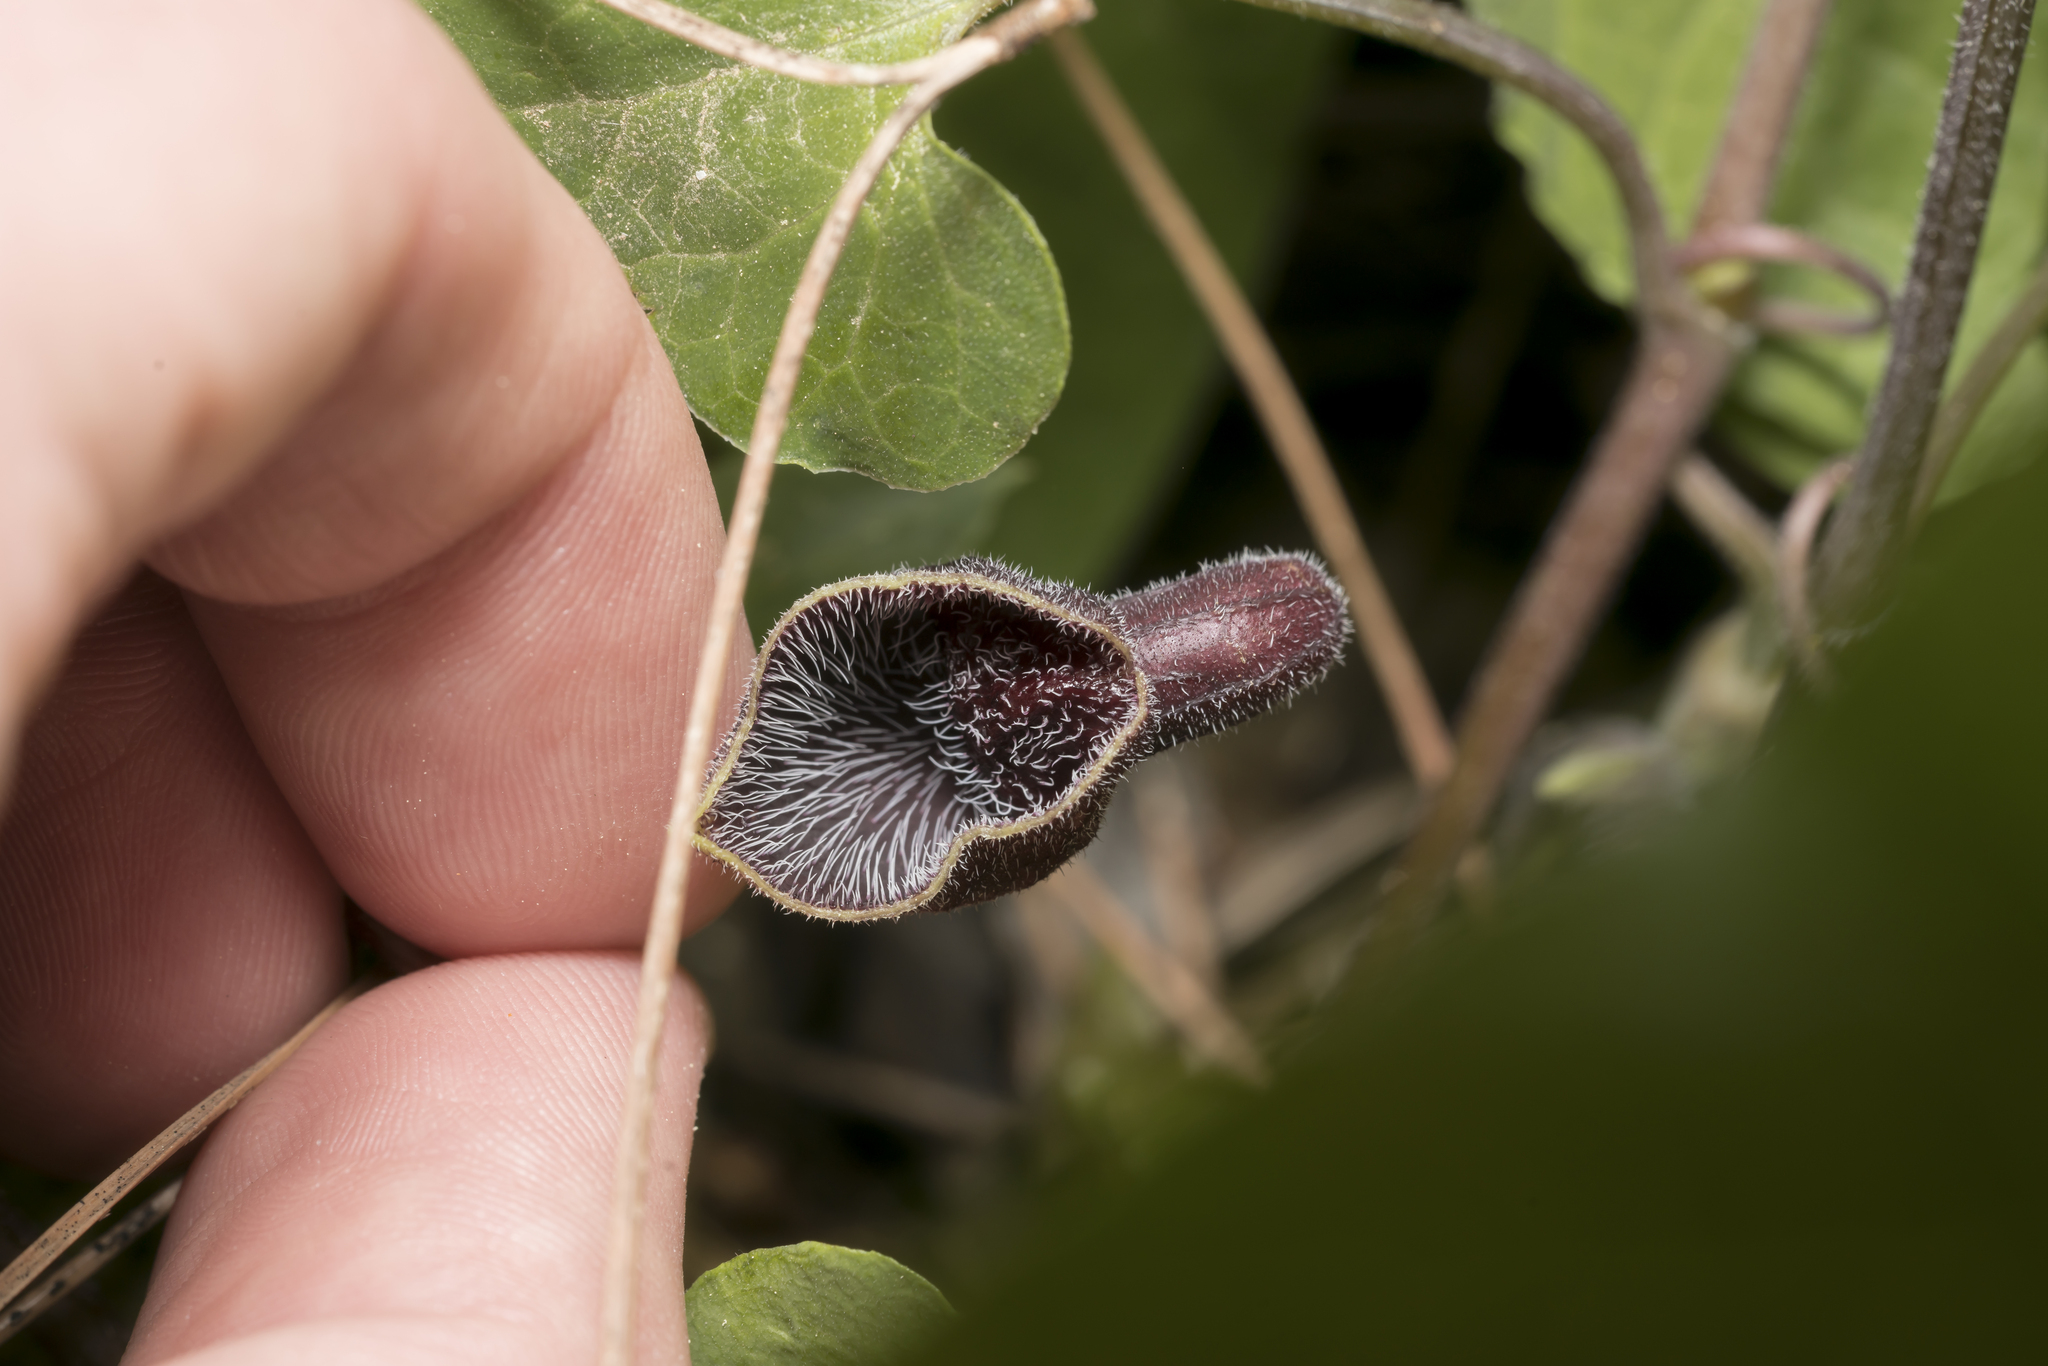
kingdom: Plantae
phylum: Tracheophyta
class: Magnoliopsida
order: Piperales
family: Aristolochiaceae
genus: Aristolochia
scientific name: Aristolochia guichardii
